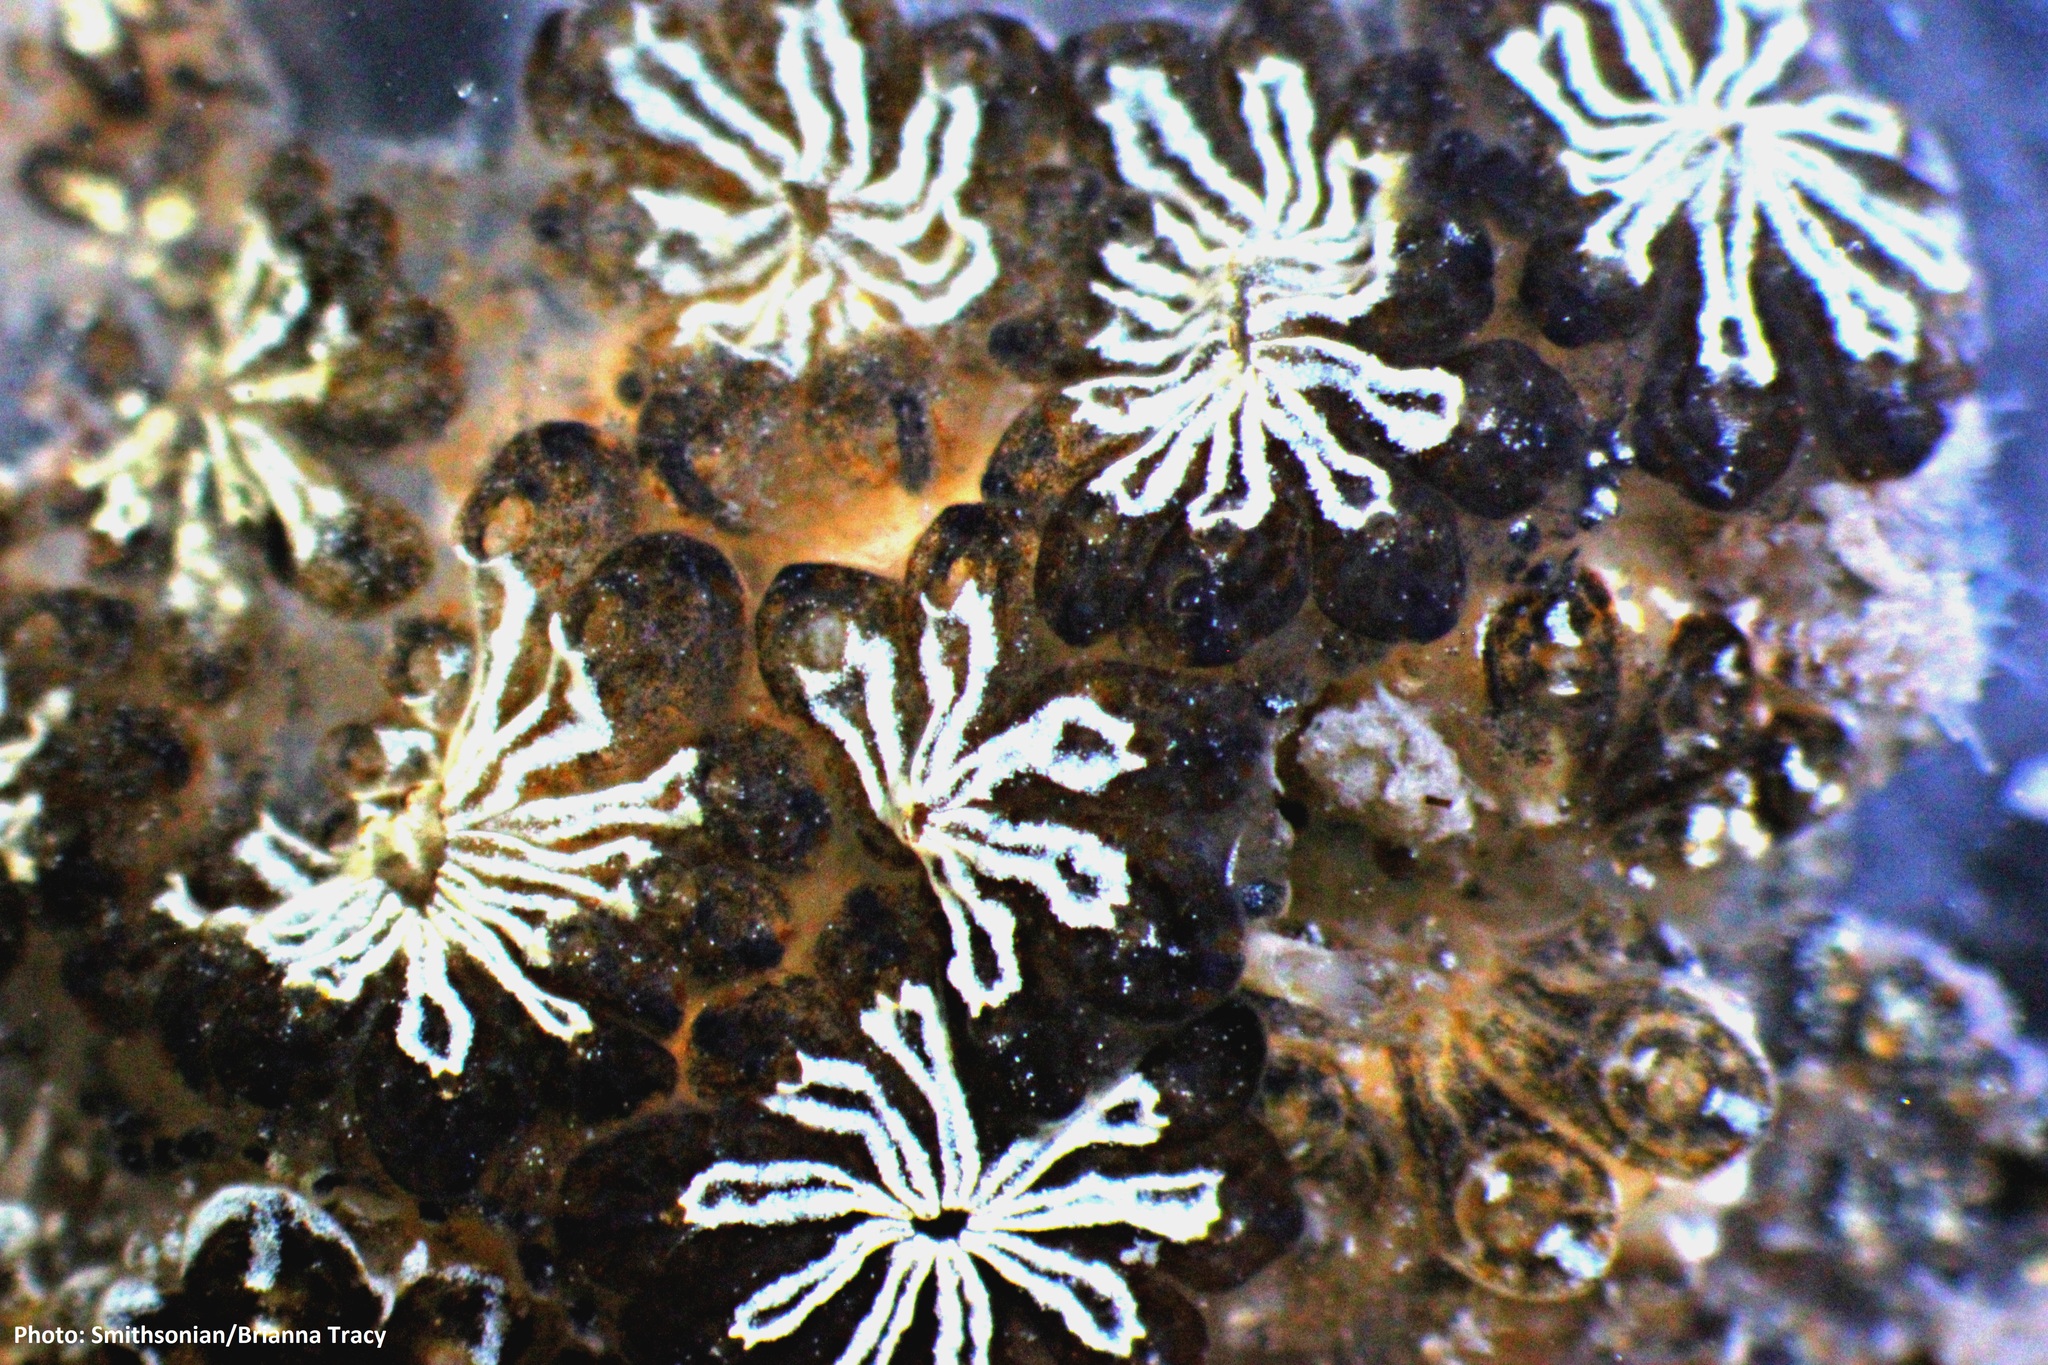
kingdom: Animalia
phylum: Chordata
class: Ascidiacea
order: Stolidobranchia
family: Styelidae
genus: Botryllus
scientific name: Botryllus schlosseri
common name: Golden star tunicate
